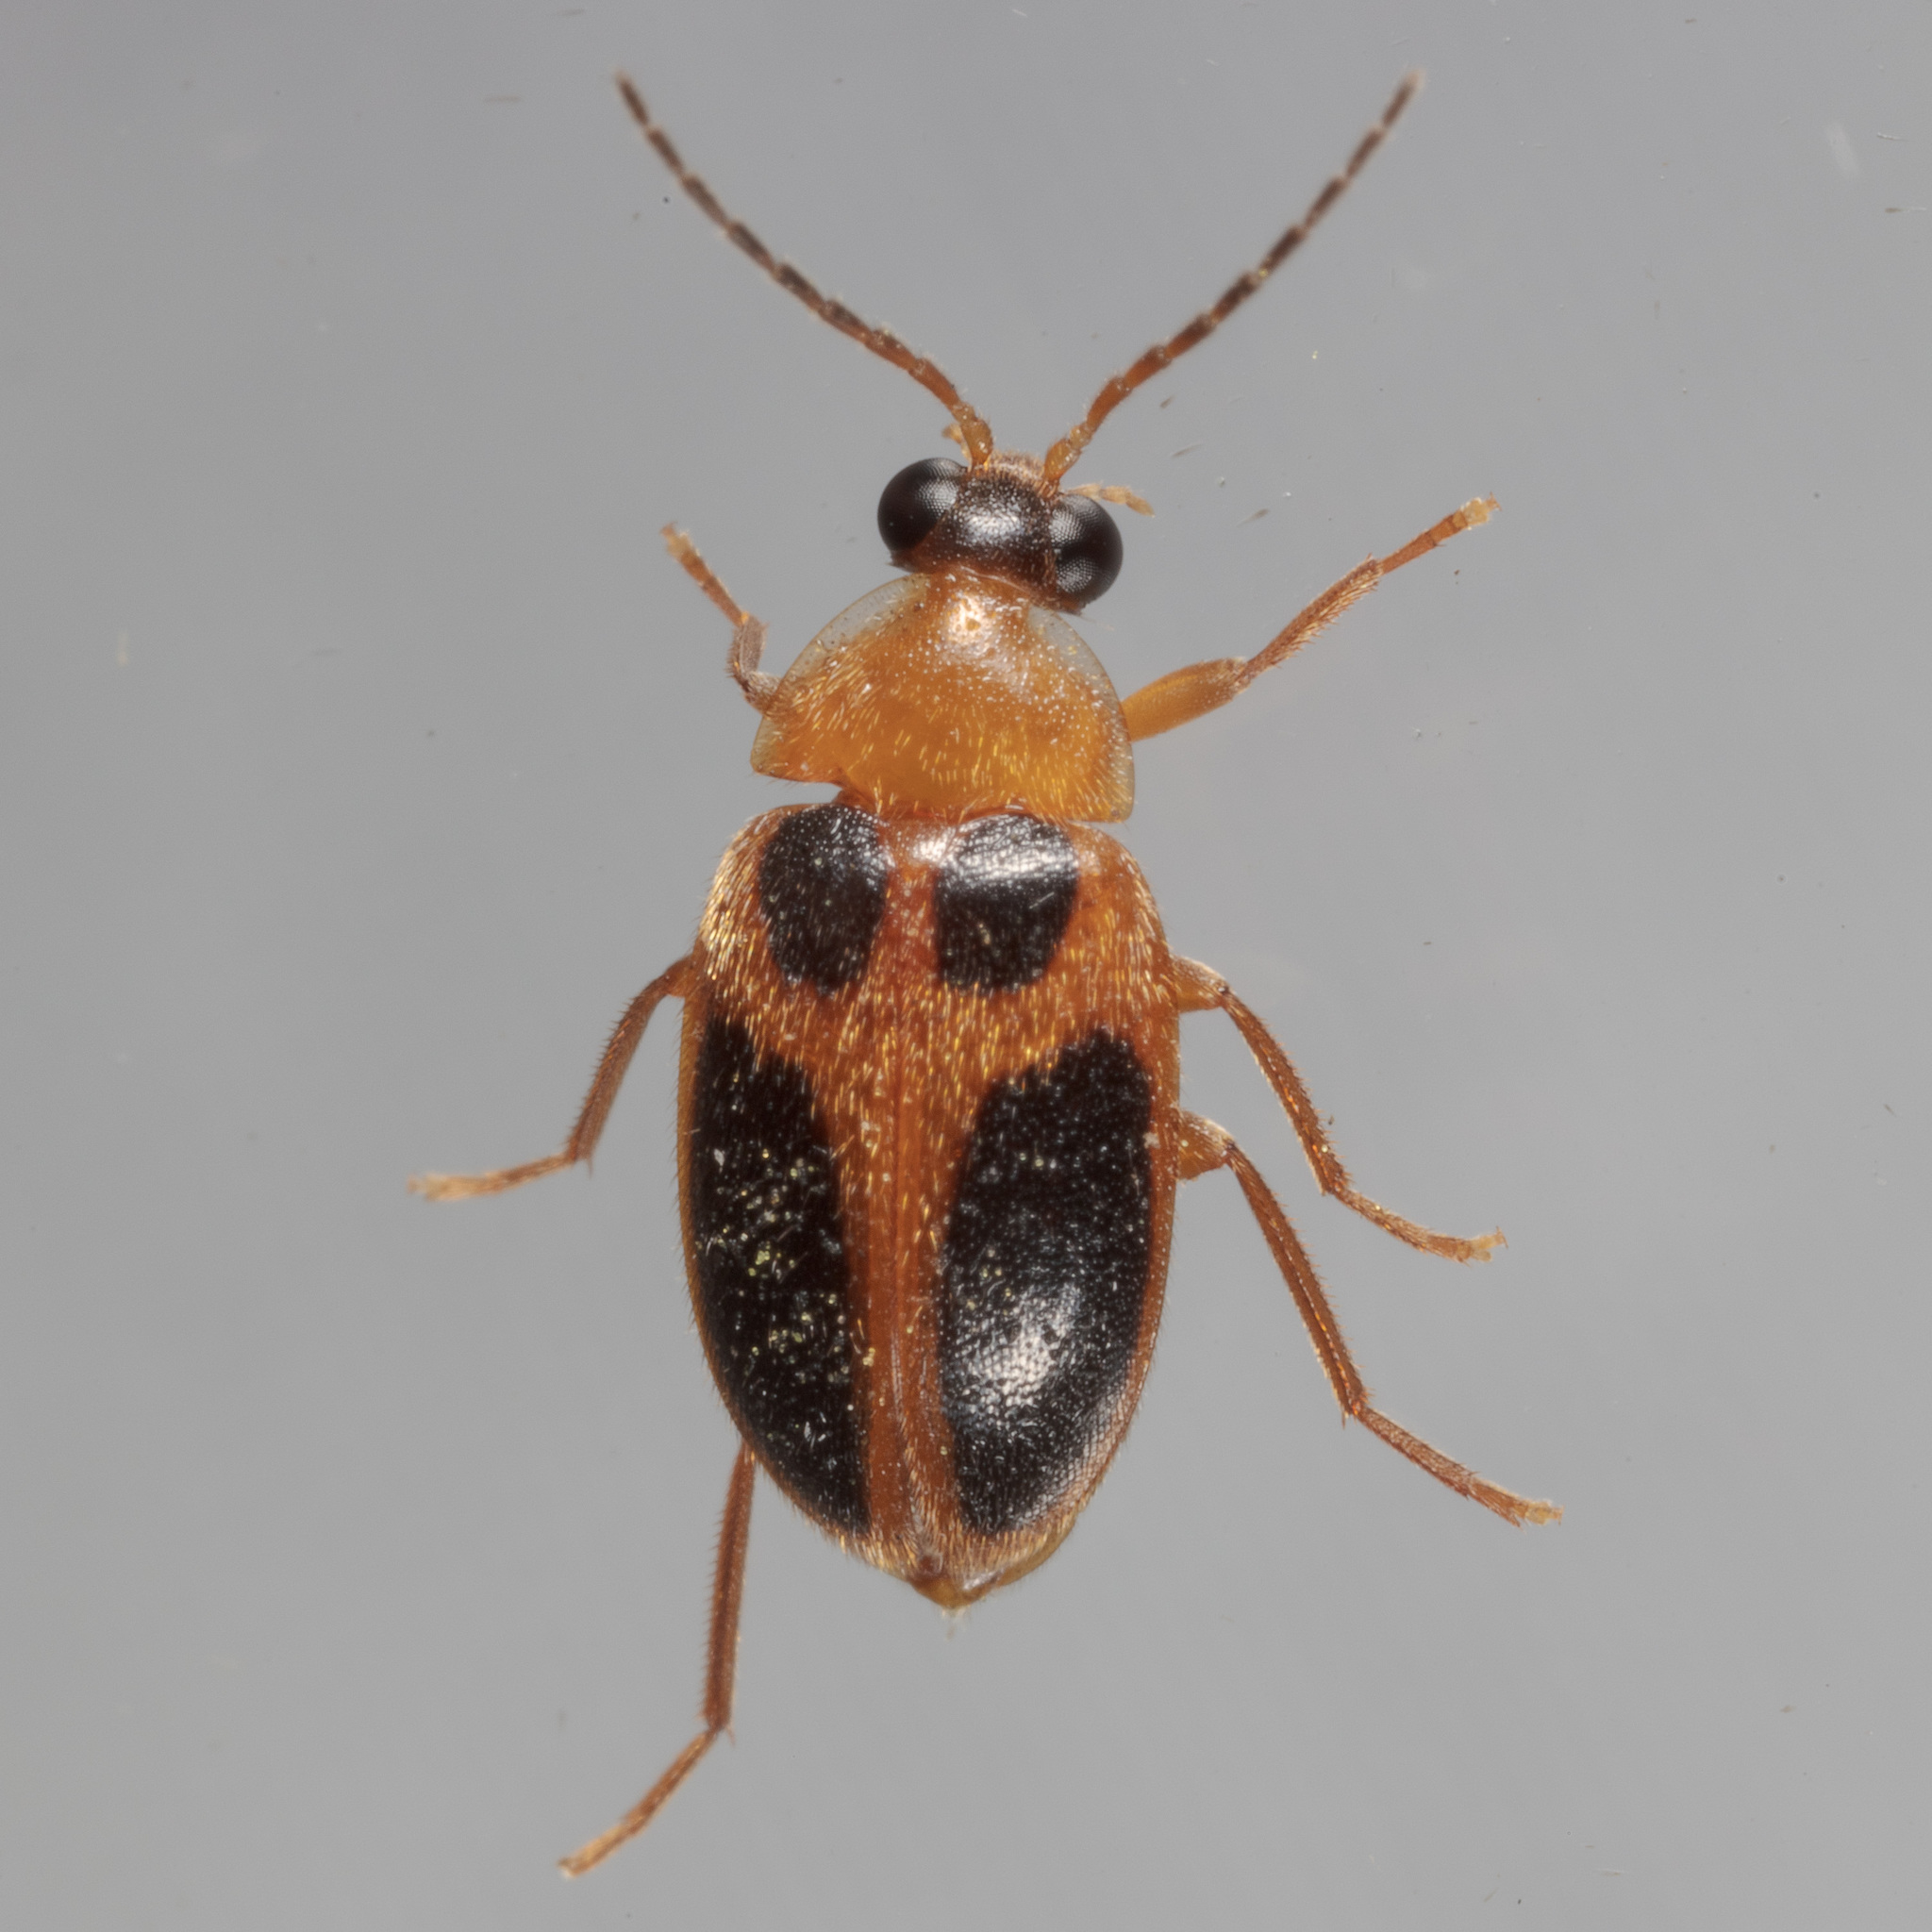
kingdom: Animalia
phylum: Arthropoda
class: Insecta
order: Coleoptera
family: Scirtidae
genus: Sacodes
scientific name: Sacodes pulchella
